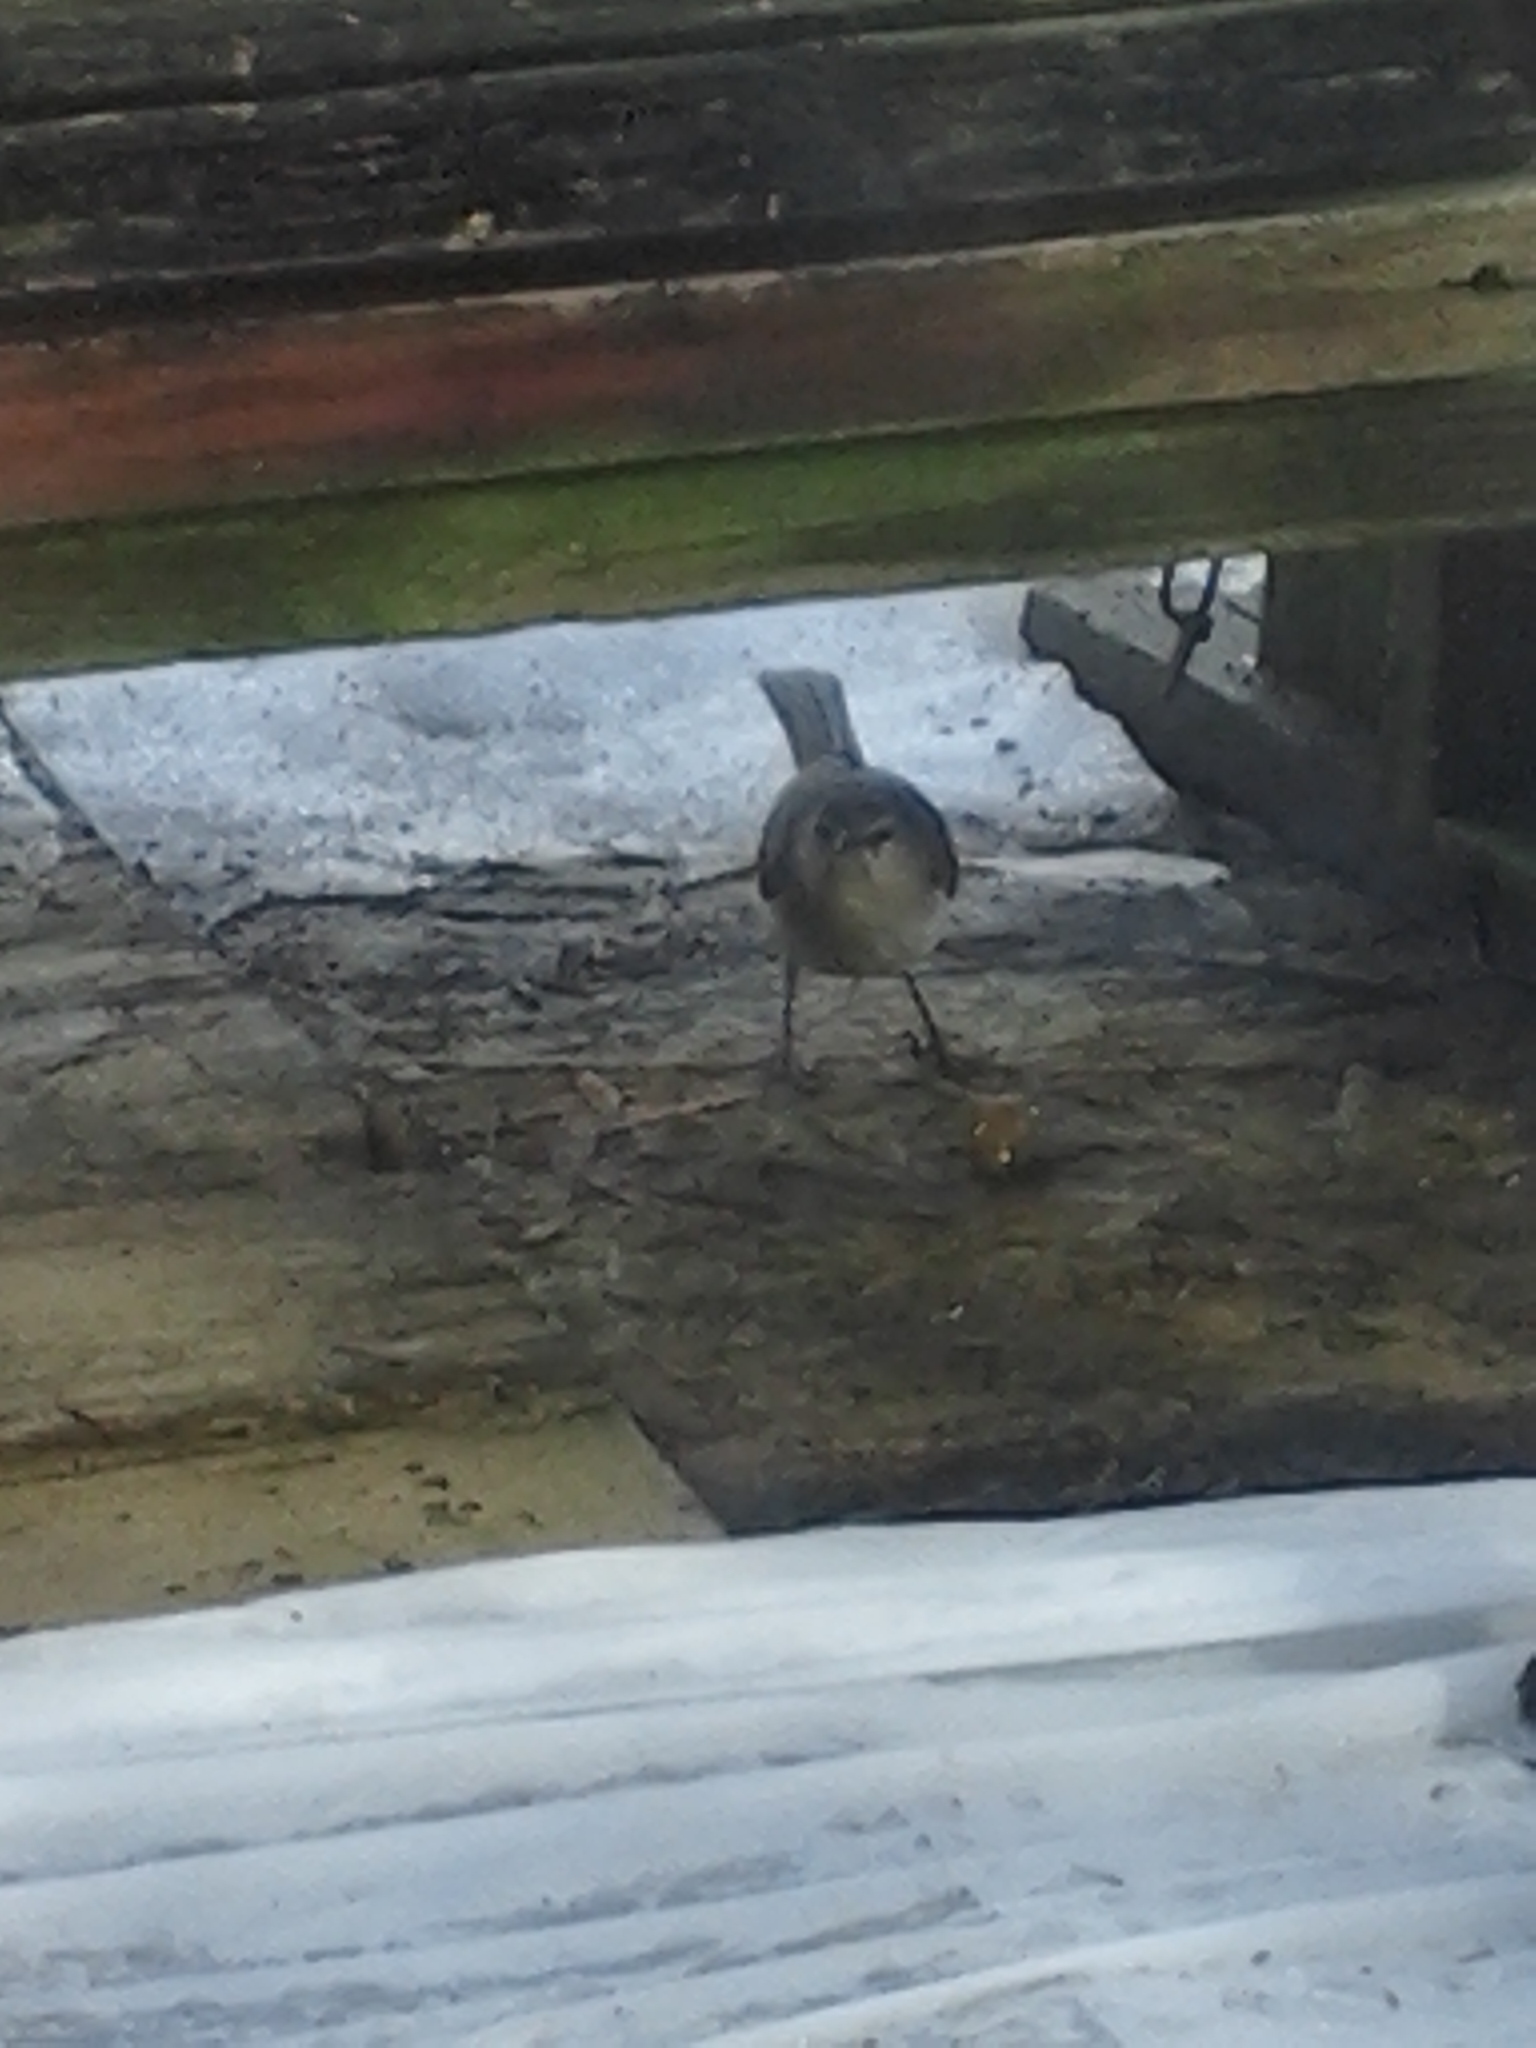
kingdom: Animalia
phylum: Chordata
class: Aves
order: Passeriformes
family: Mimidae
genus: Mimus
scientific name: Mimus polyglottos
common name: Northern mockingbird
